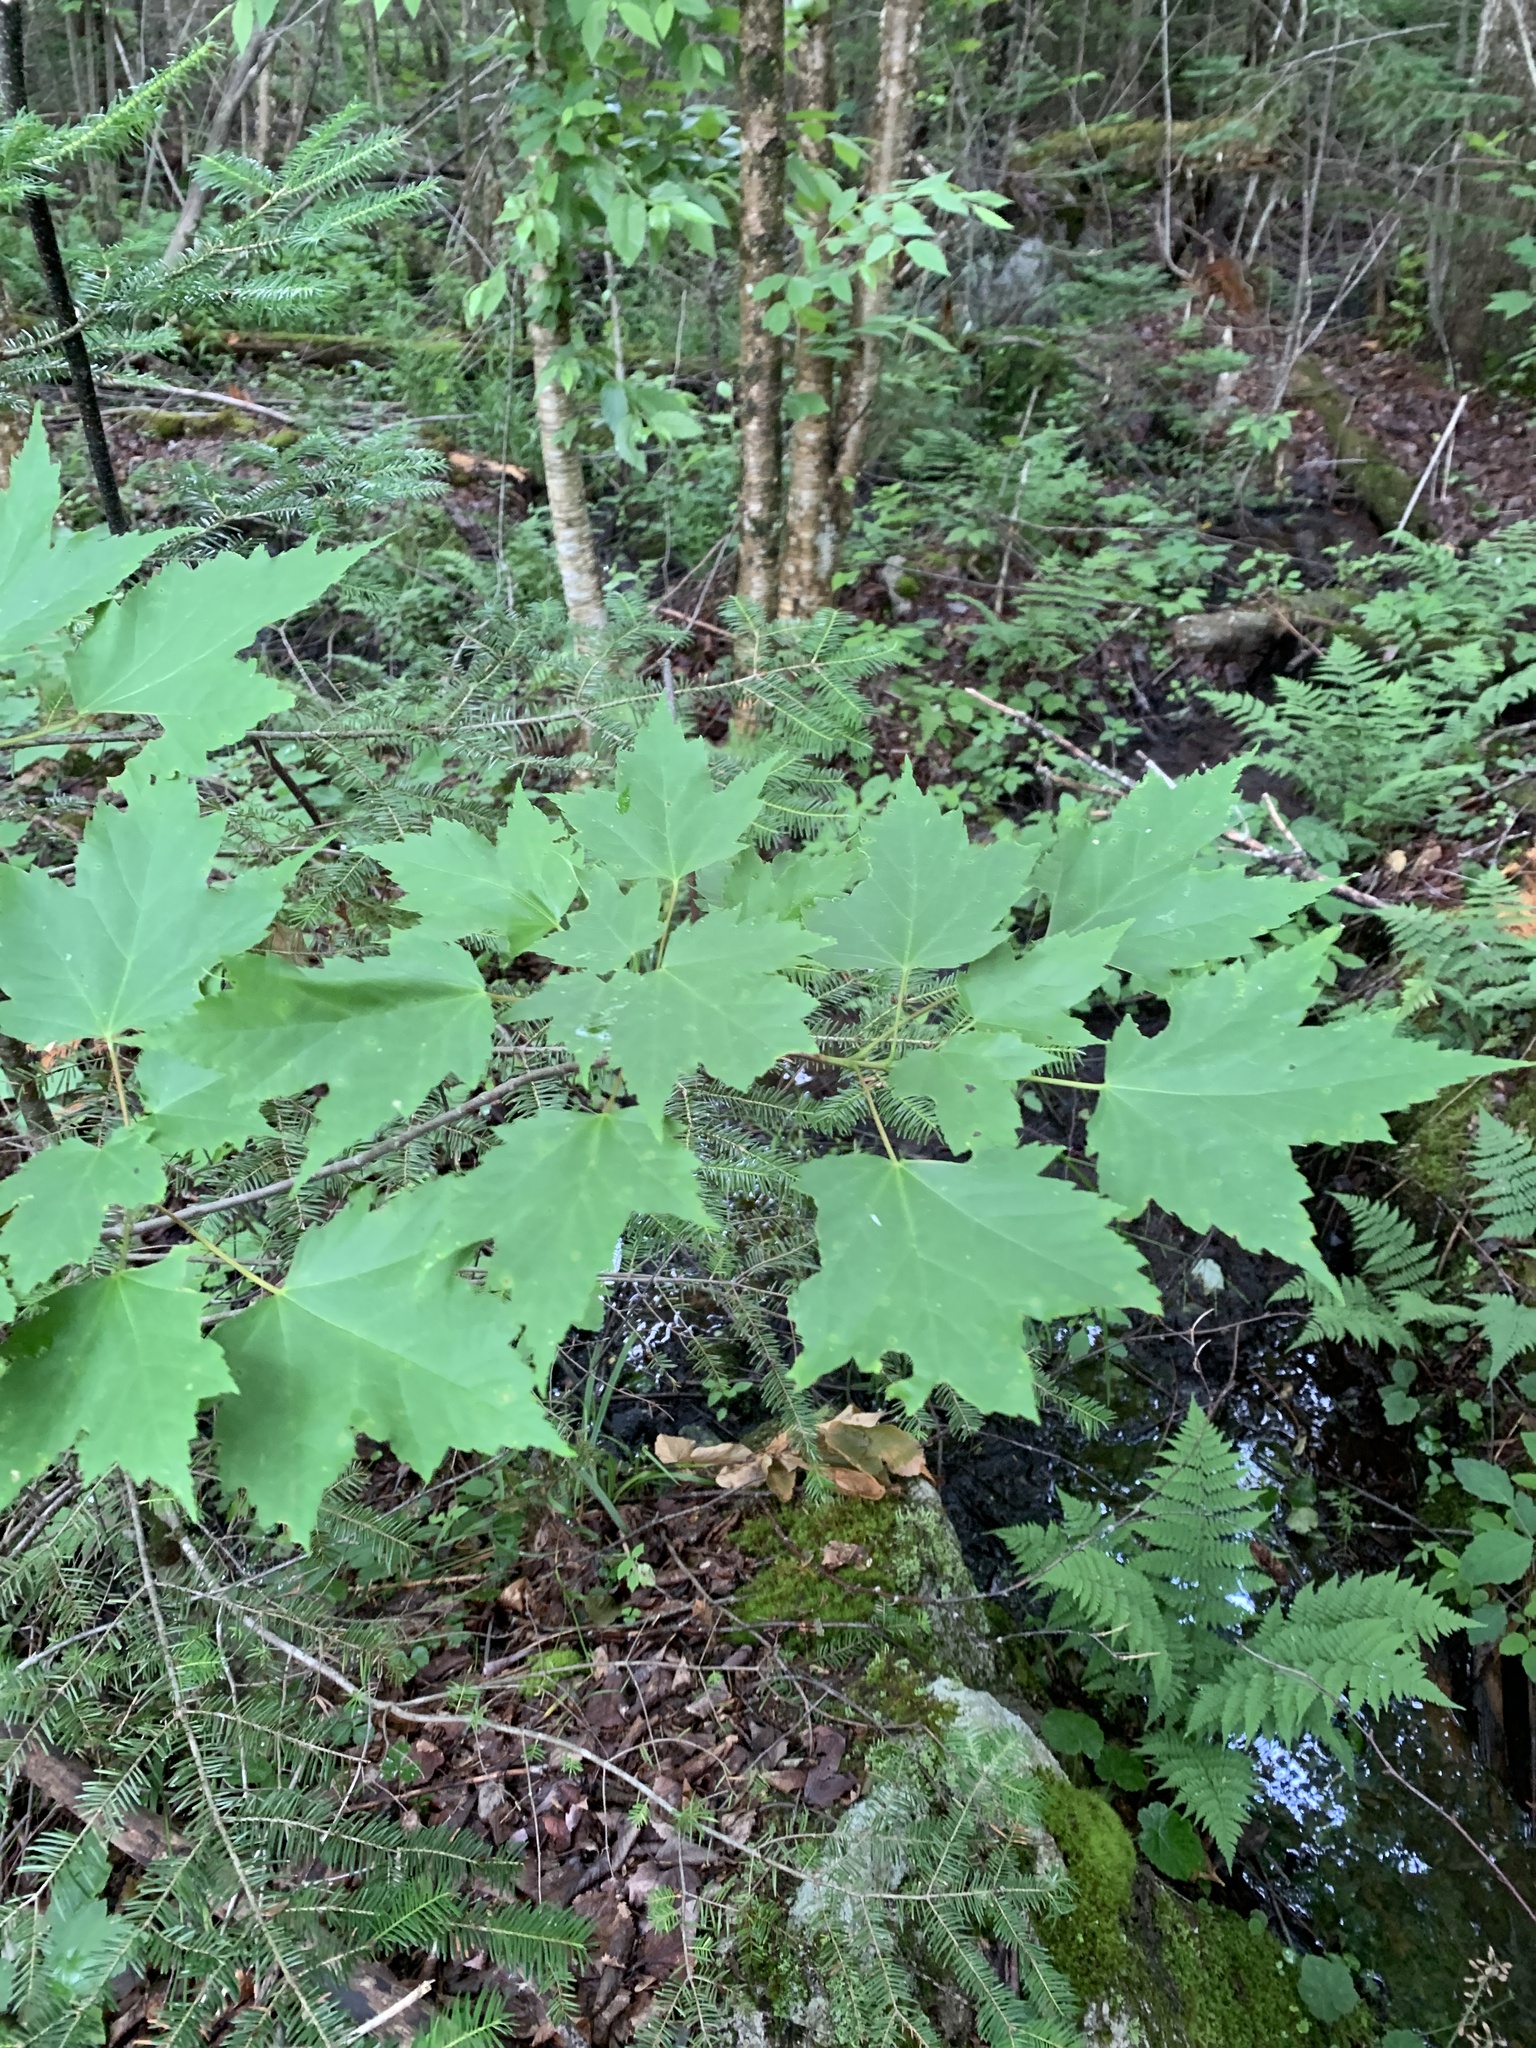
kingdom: Plantae
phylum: Tracheophyta
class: Magnoliopsida
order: Sapindales
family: Sapindaceae
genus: Acer
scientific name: Acer rubrum
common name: Red maple
